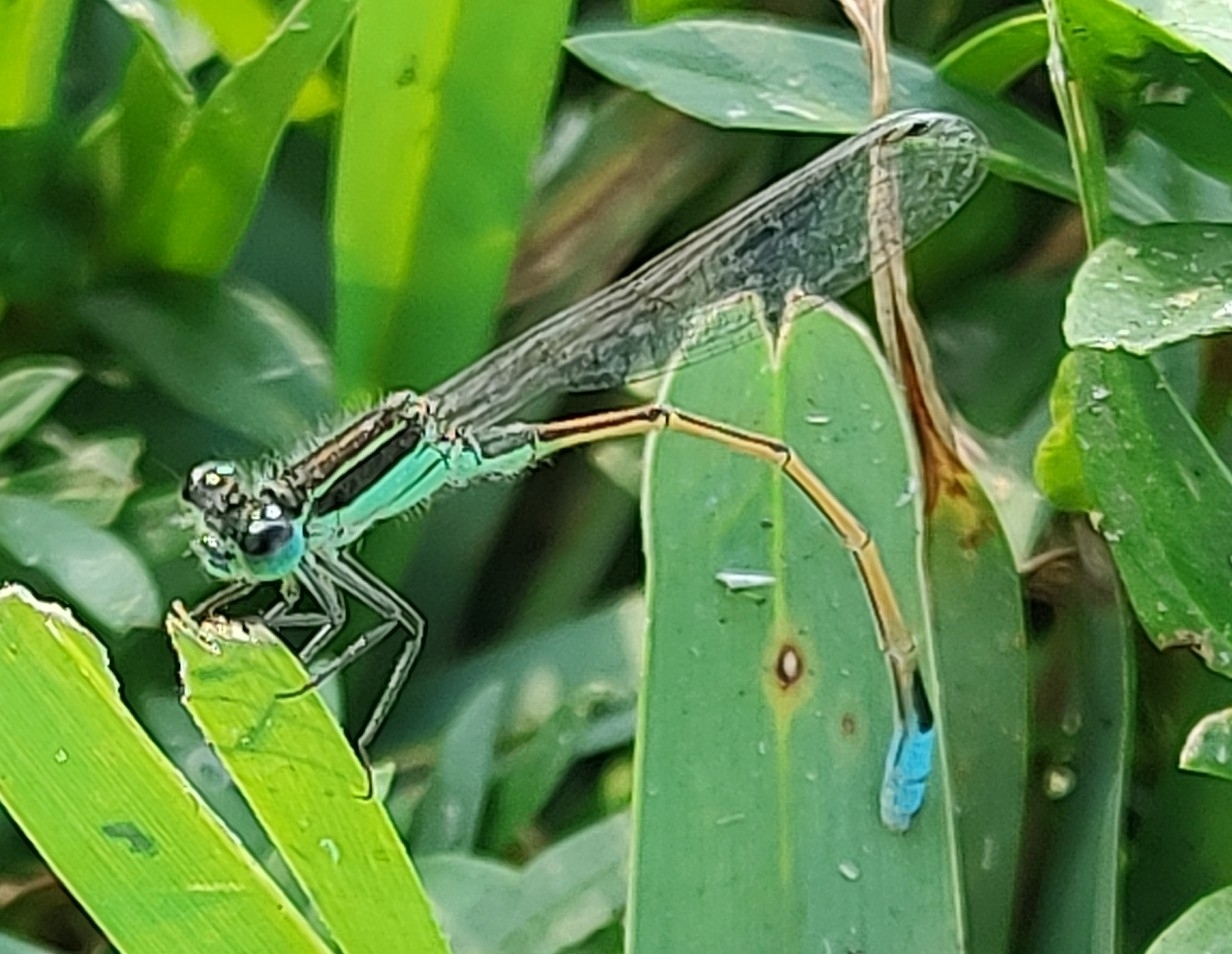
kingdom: Animalia
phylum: Arthropoda
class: Insecta
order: Odonata
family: Coenagrionidae
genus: Ischnura
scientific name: Ischnura ramburii
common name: Rambur's forktail
